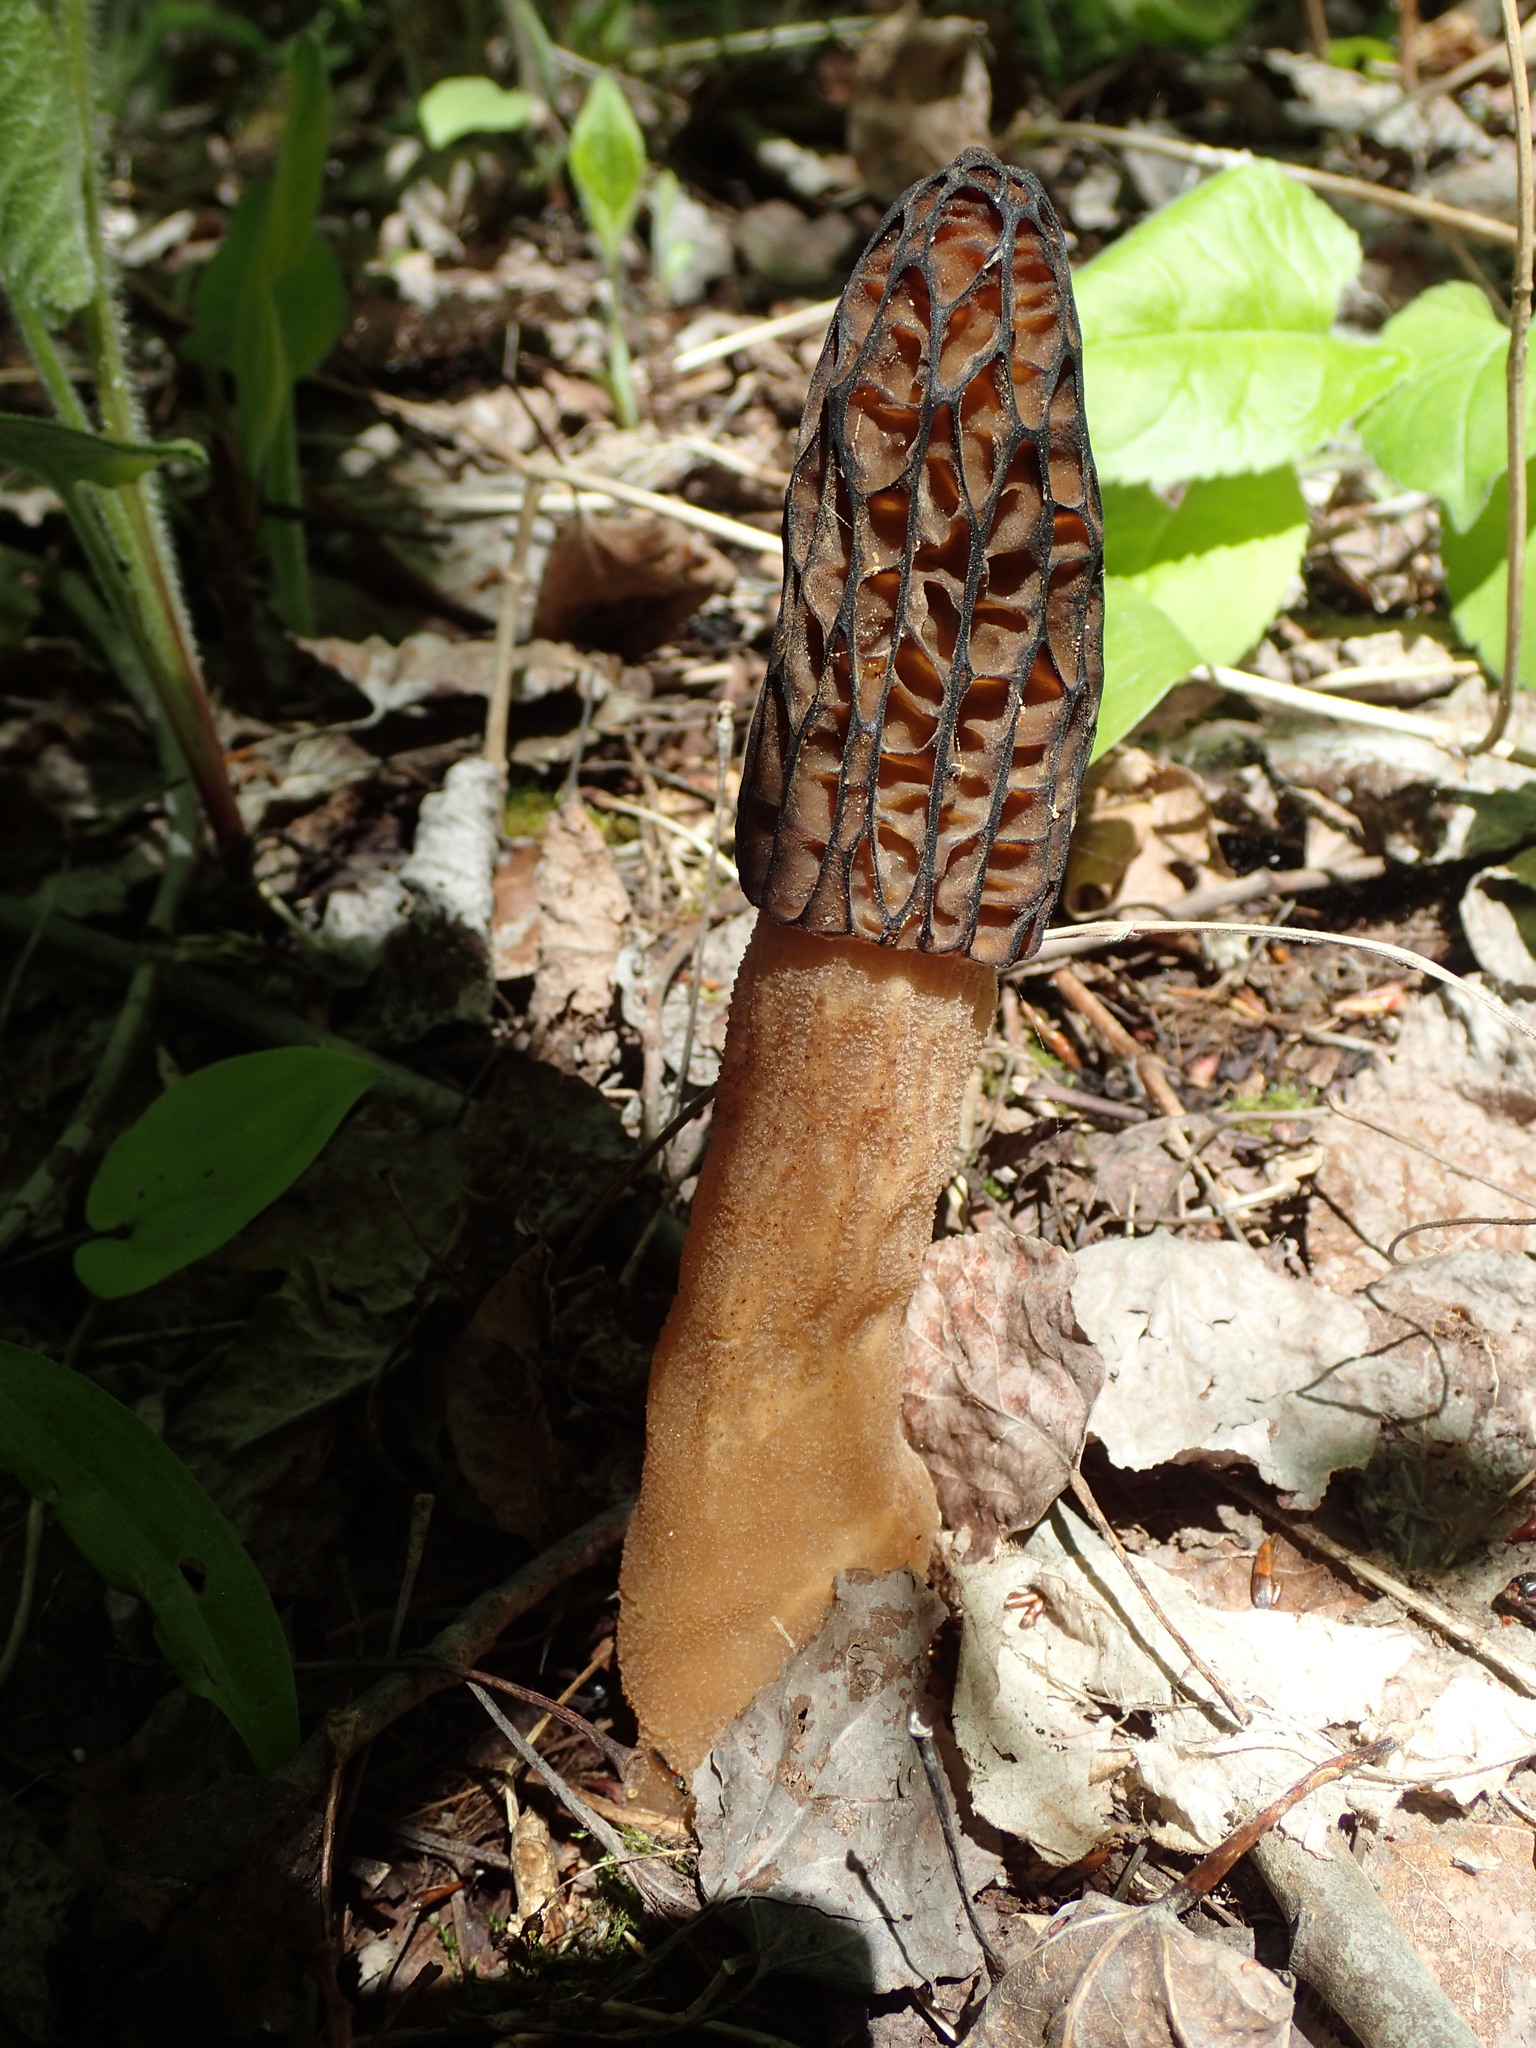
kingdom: Fungi
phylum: Ascomycota
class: Pezizomycetes
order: Pezizales
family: Morchellaceae
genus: Morchella
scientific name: Morchella angusticeps
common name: Black morel
